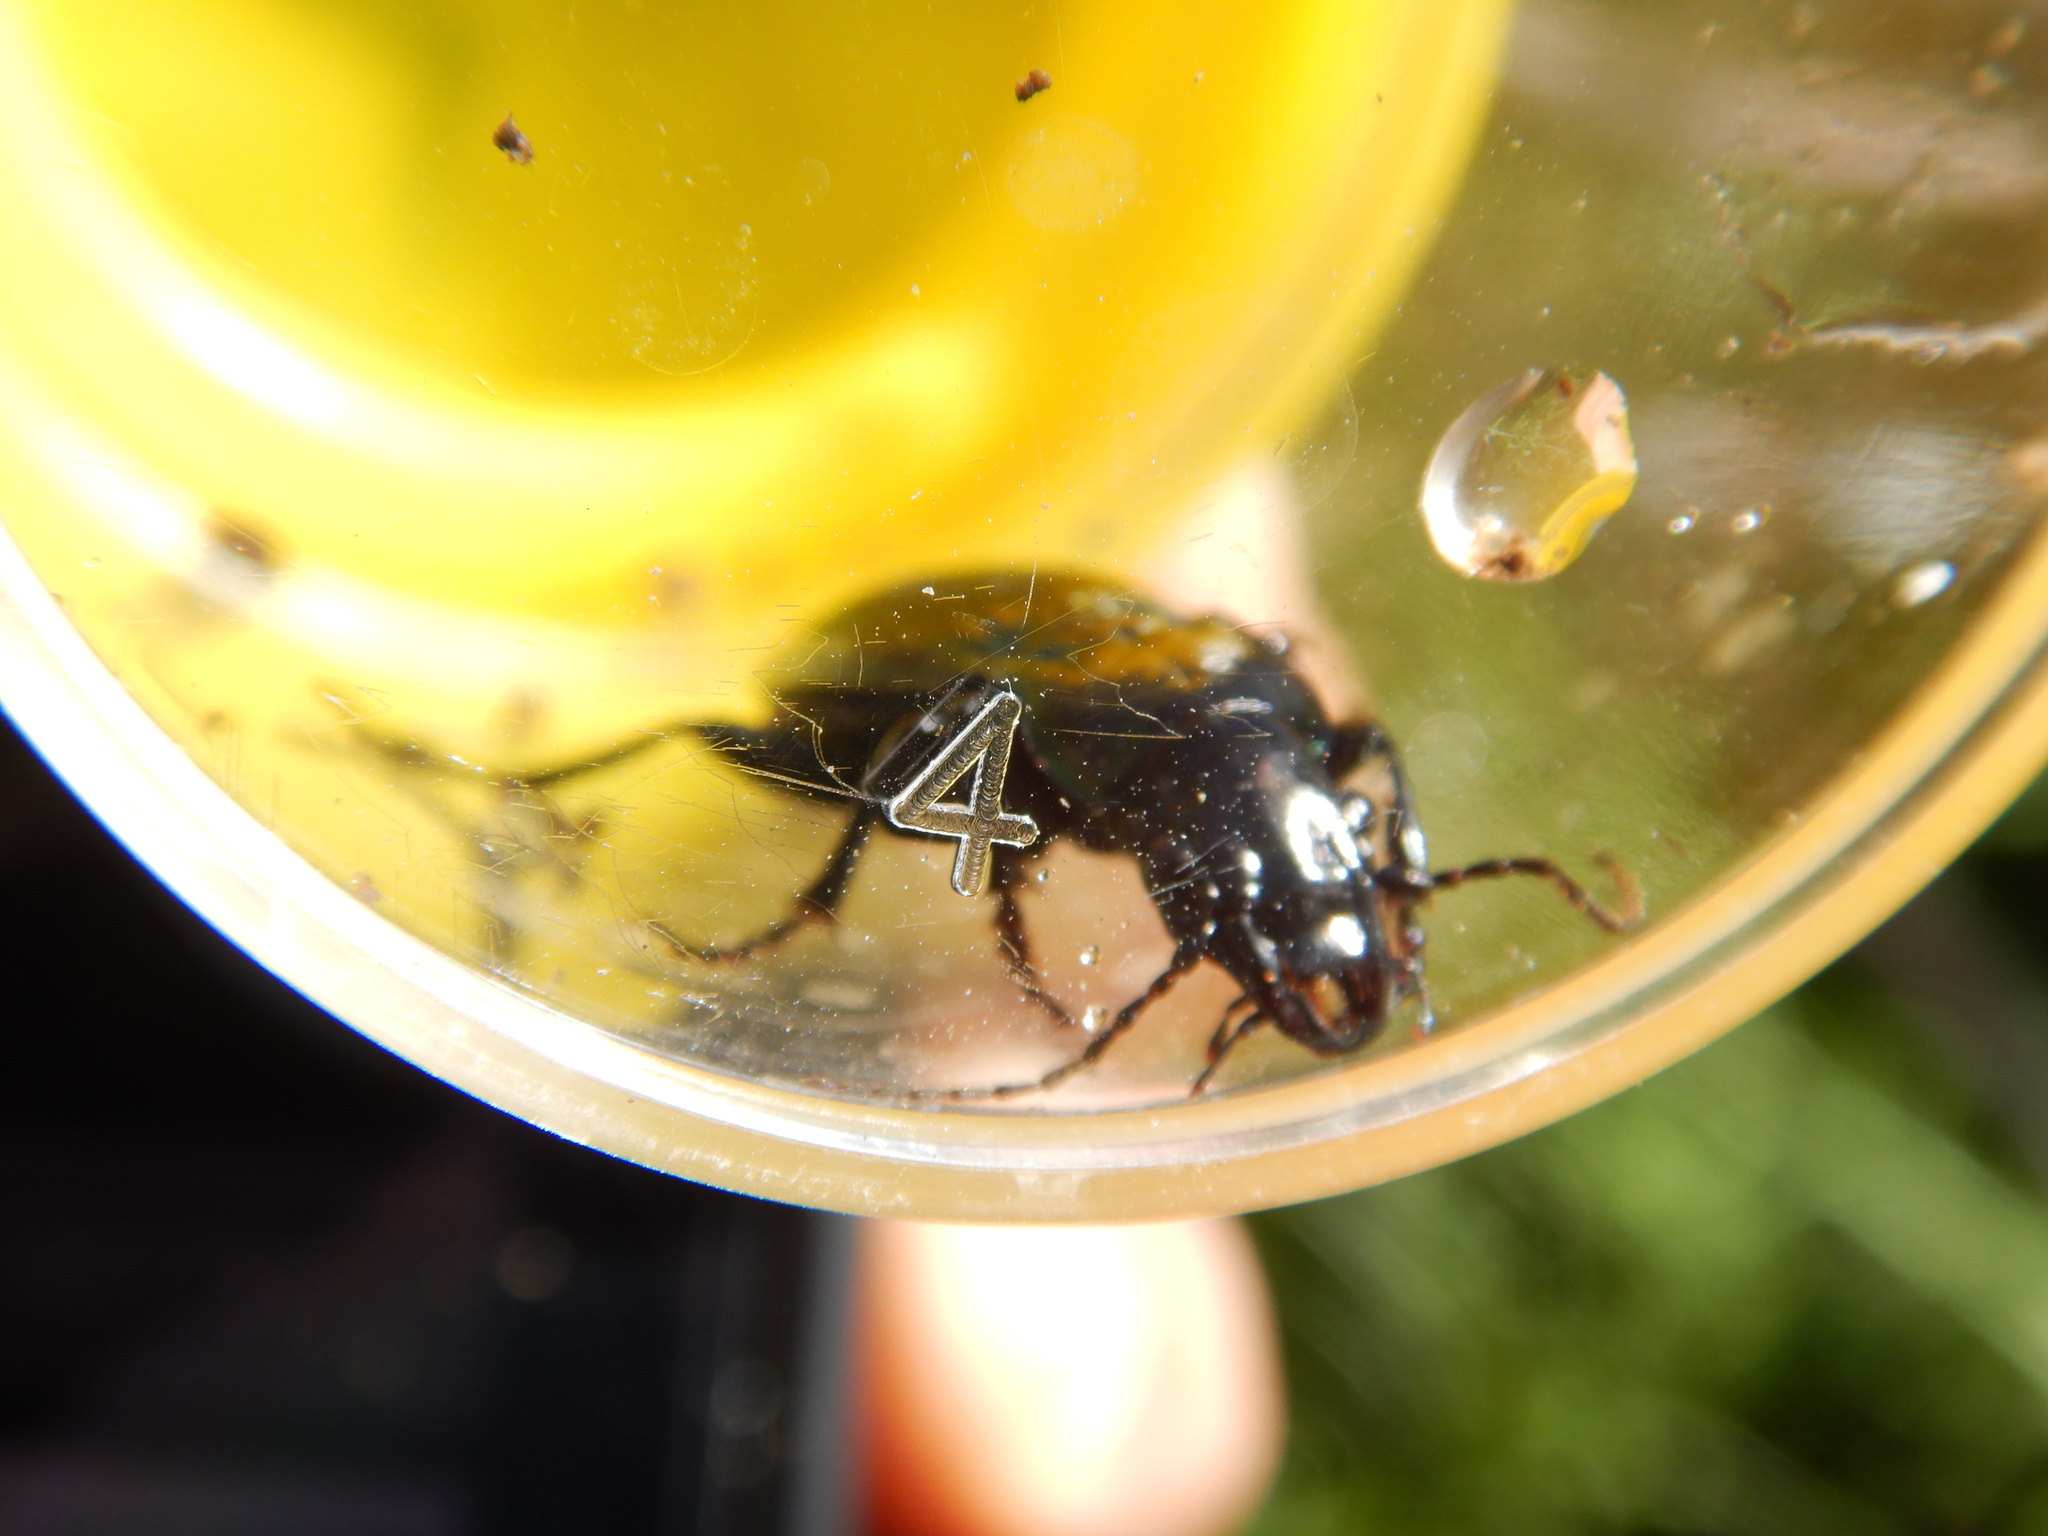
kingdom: Animalia
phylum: Arthropoda
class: Insecta
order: Coleoptera
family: Carabidae
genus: Megadromus
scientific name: Megadromus antarcticus
